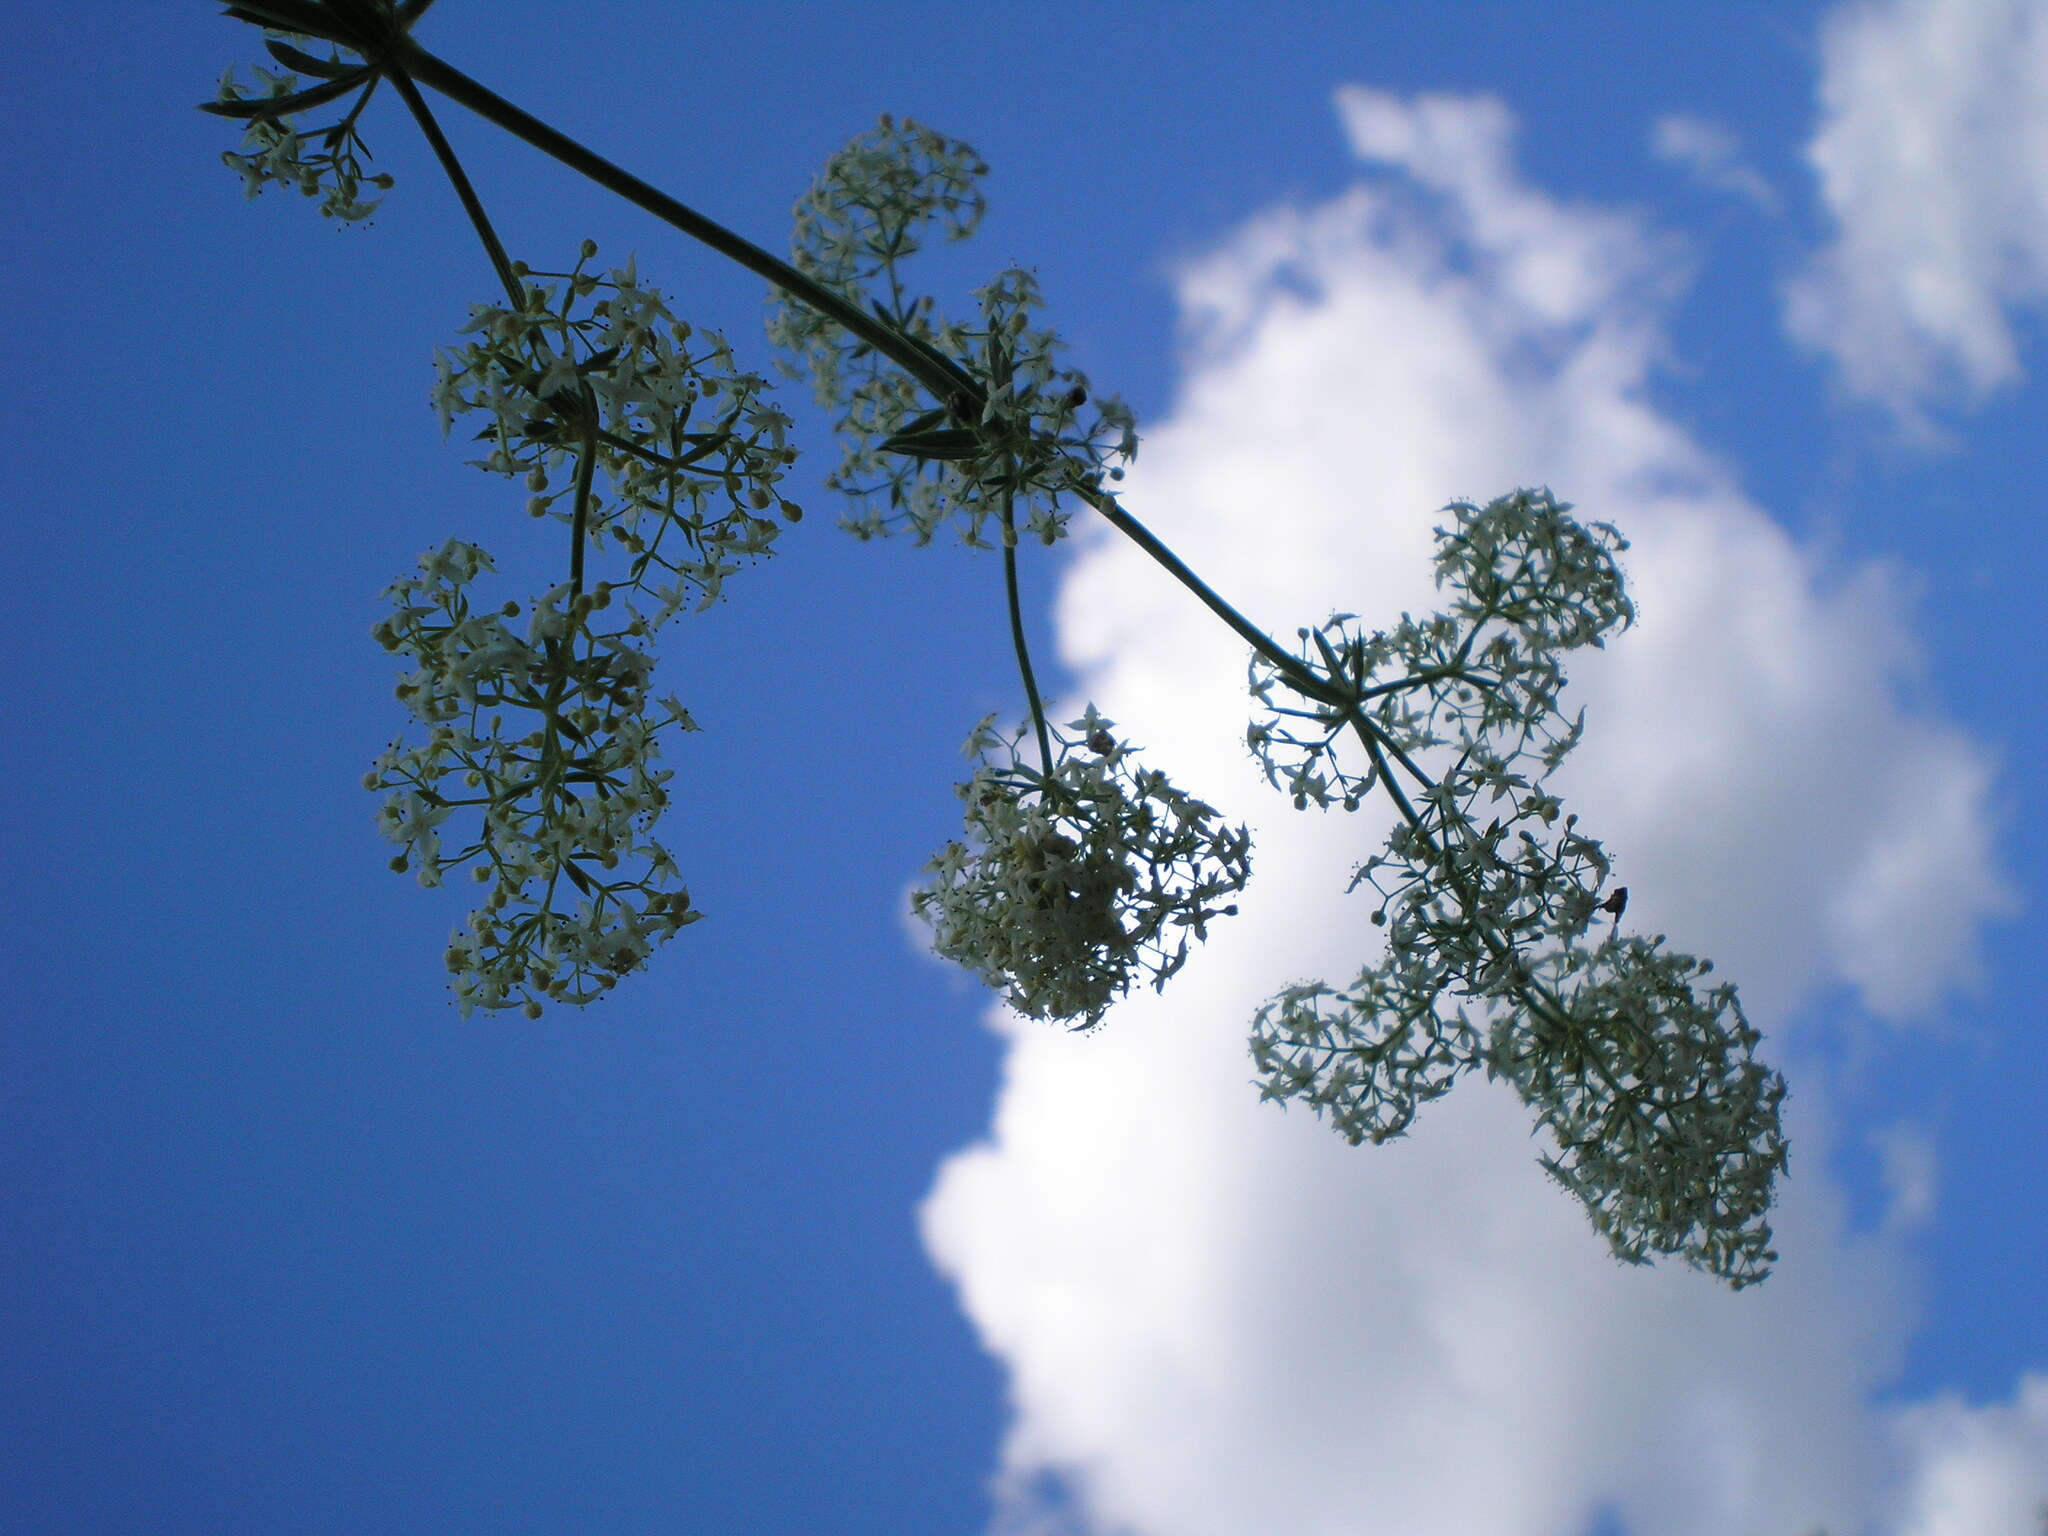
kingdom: Plantae
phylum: Tracheophyta
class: Magnoliopsida
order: Gentianales
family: Rubiaceae
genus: Galium
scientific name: Galium mollugo
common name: Hedge bedstraw
